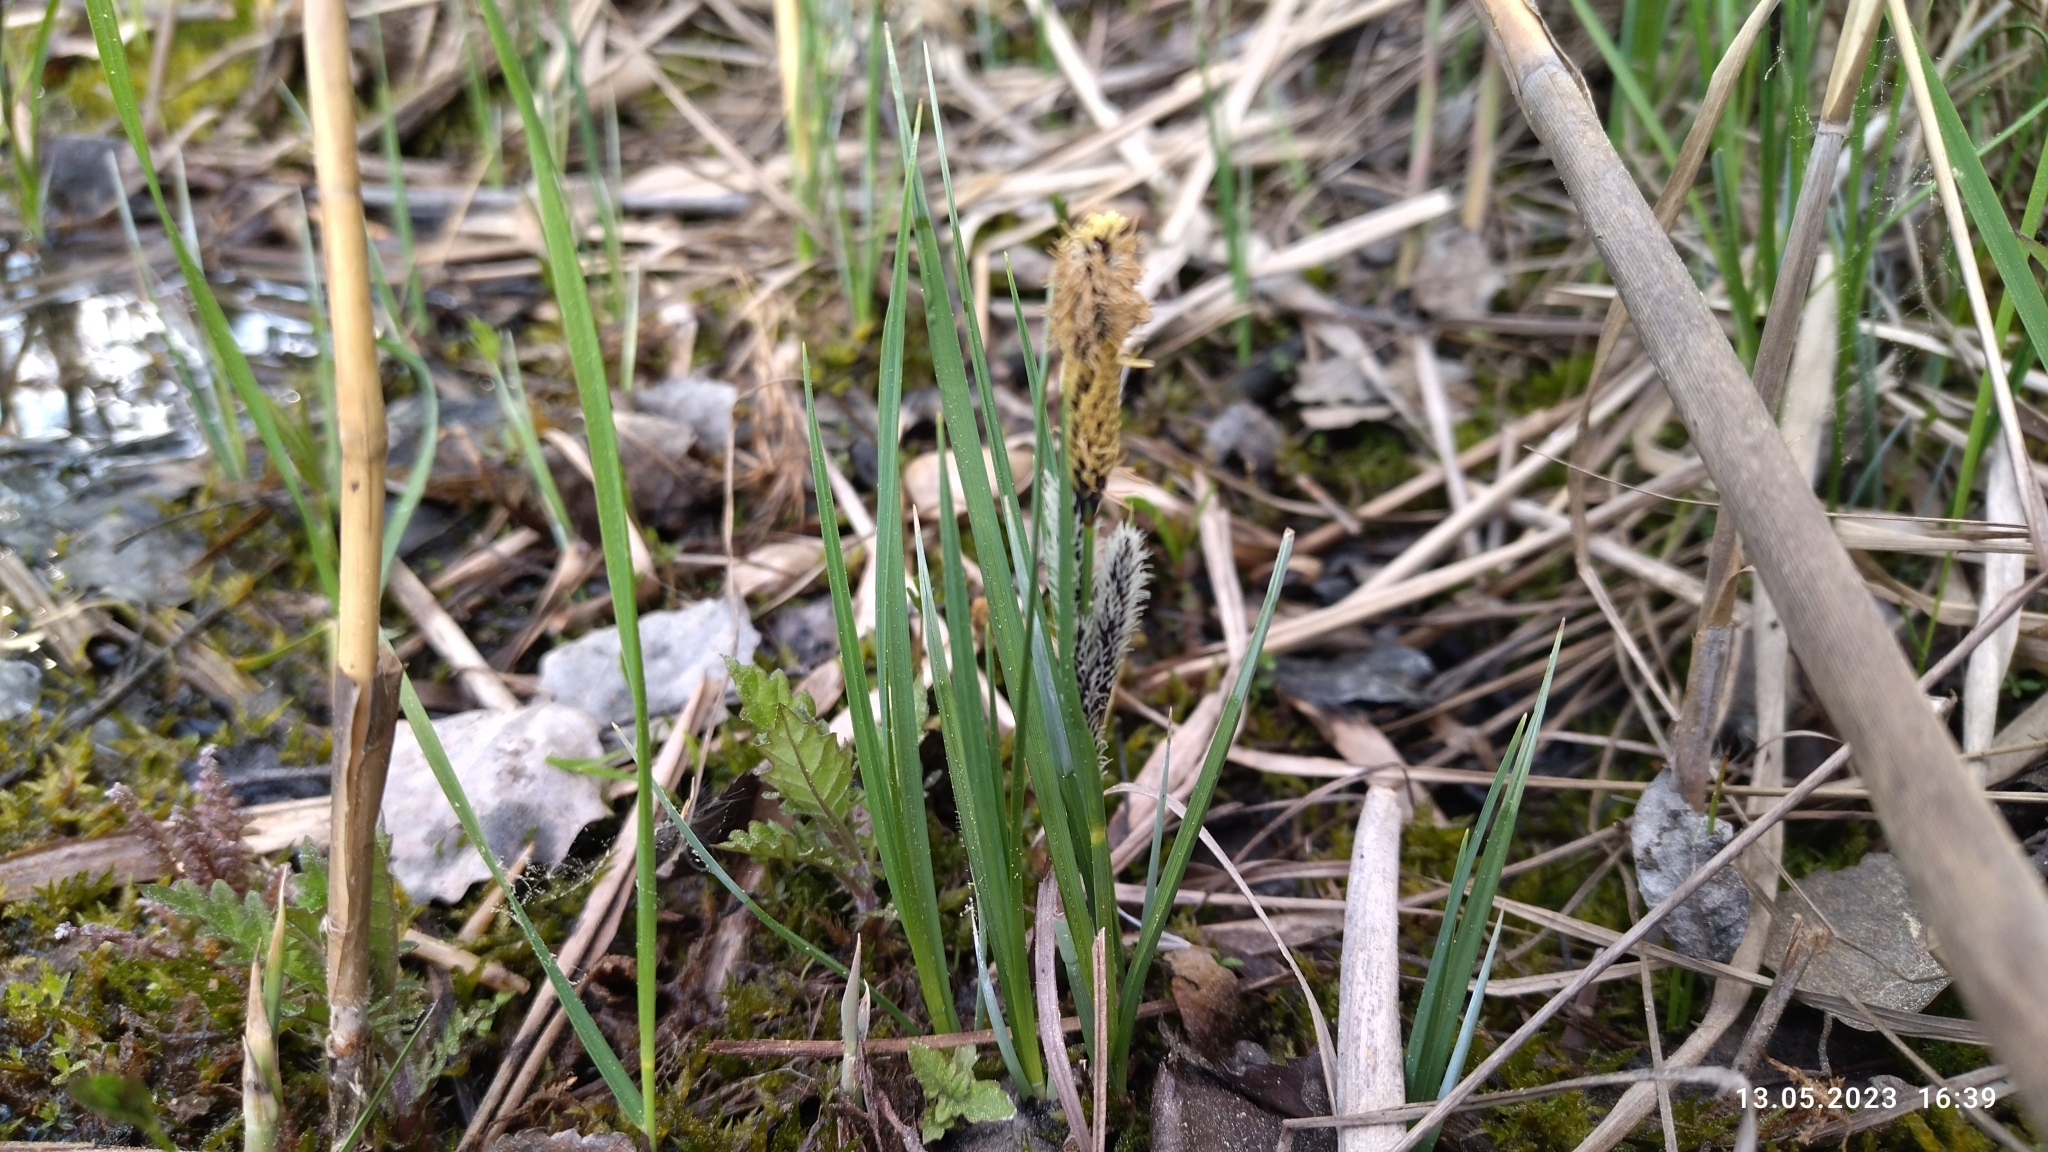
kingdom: Plantae
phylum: Tracheophyta
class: Liliopsida
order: Poales
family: Cyperaceae
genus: Carex
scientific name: Carex nigra
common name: Common sedge
